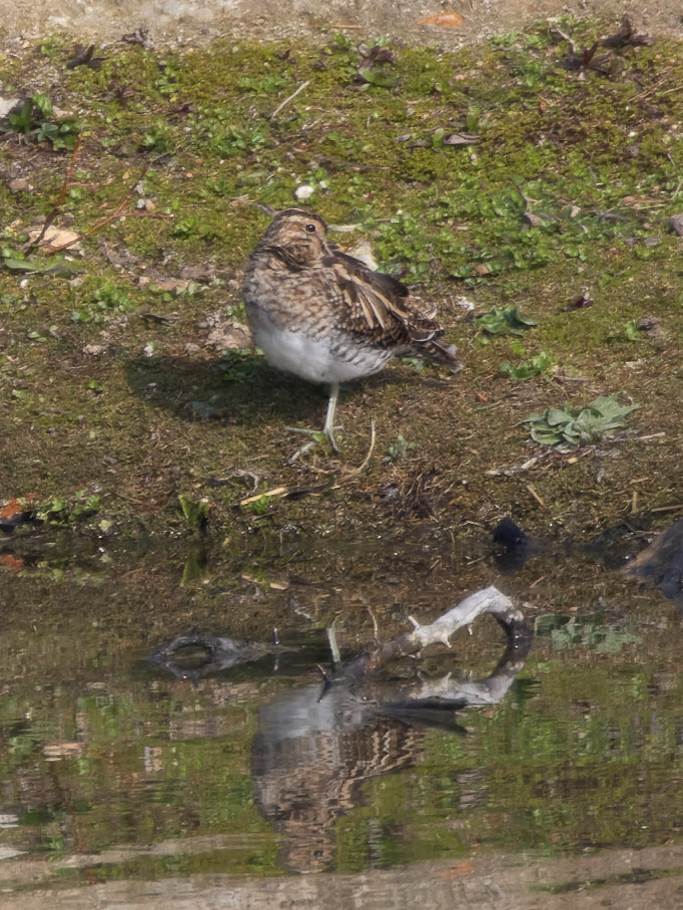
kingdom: Animalia
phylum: Chordata
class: Aves
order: Charadriiformes
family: Scolopacidae
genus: Gallinago
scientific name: Gallinago gallinago
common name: Common snipe
